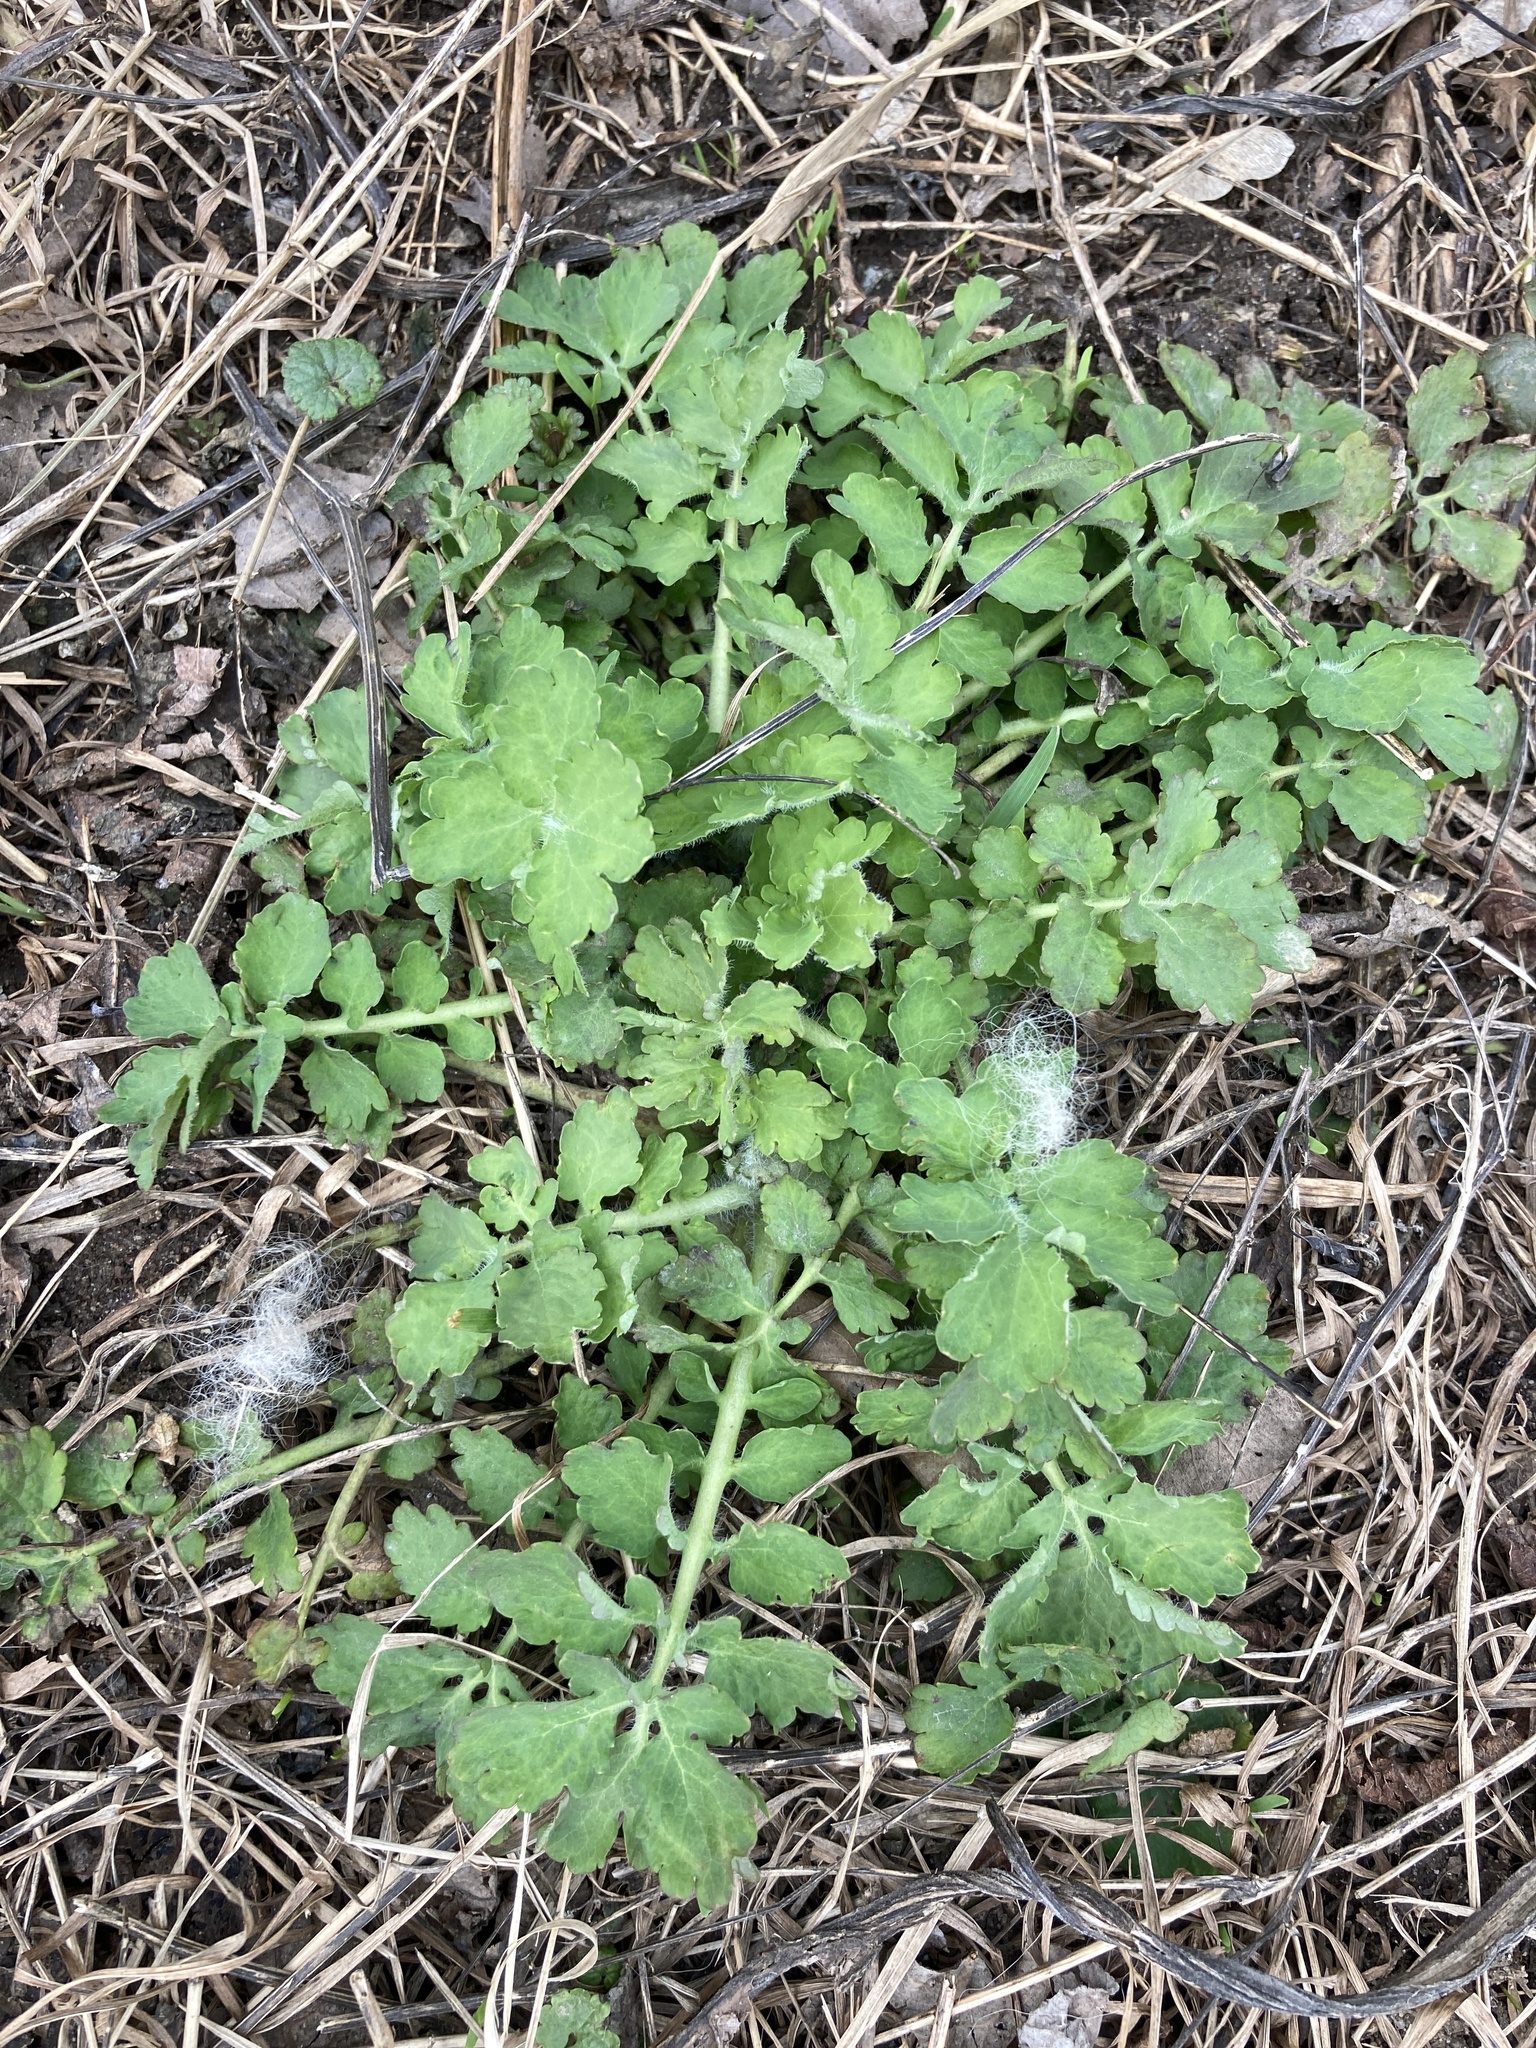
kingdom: Plantae
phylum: Tracheophyta
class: Magnoliopsida
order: Ranunculales
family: Papaveraceae
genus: Chelidonium
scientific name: Chelidonium majus
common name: Greater celandine
